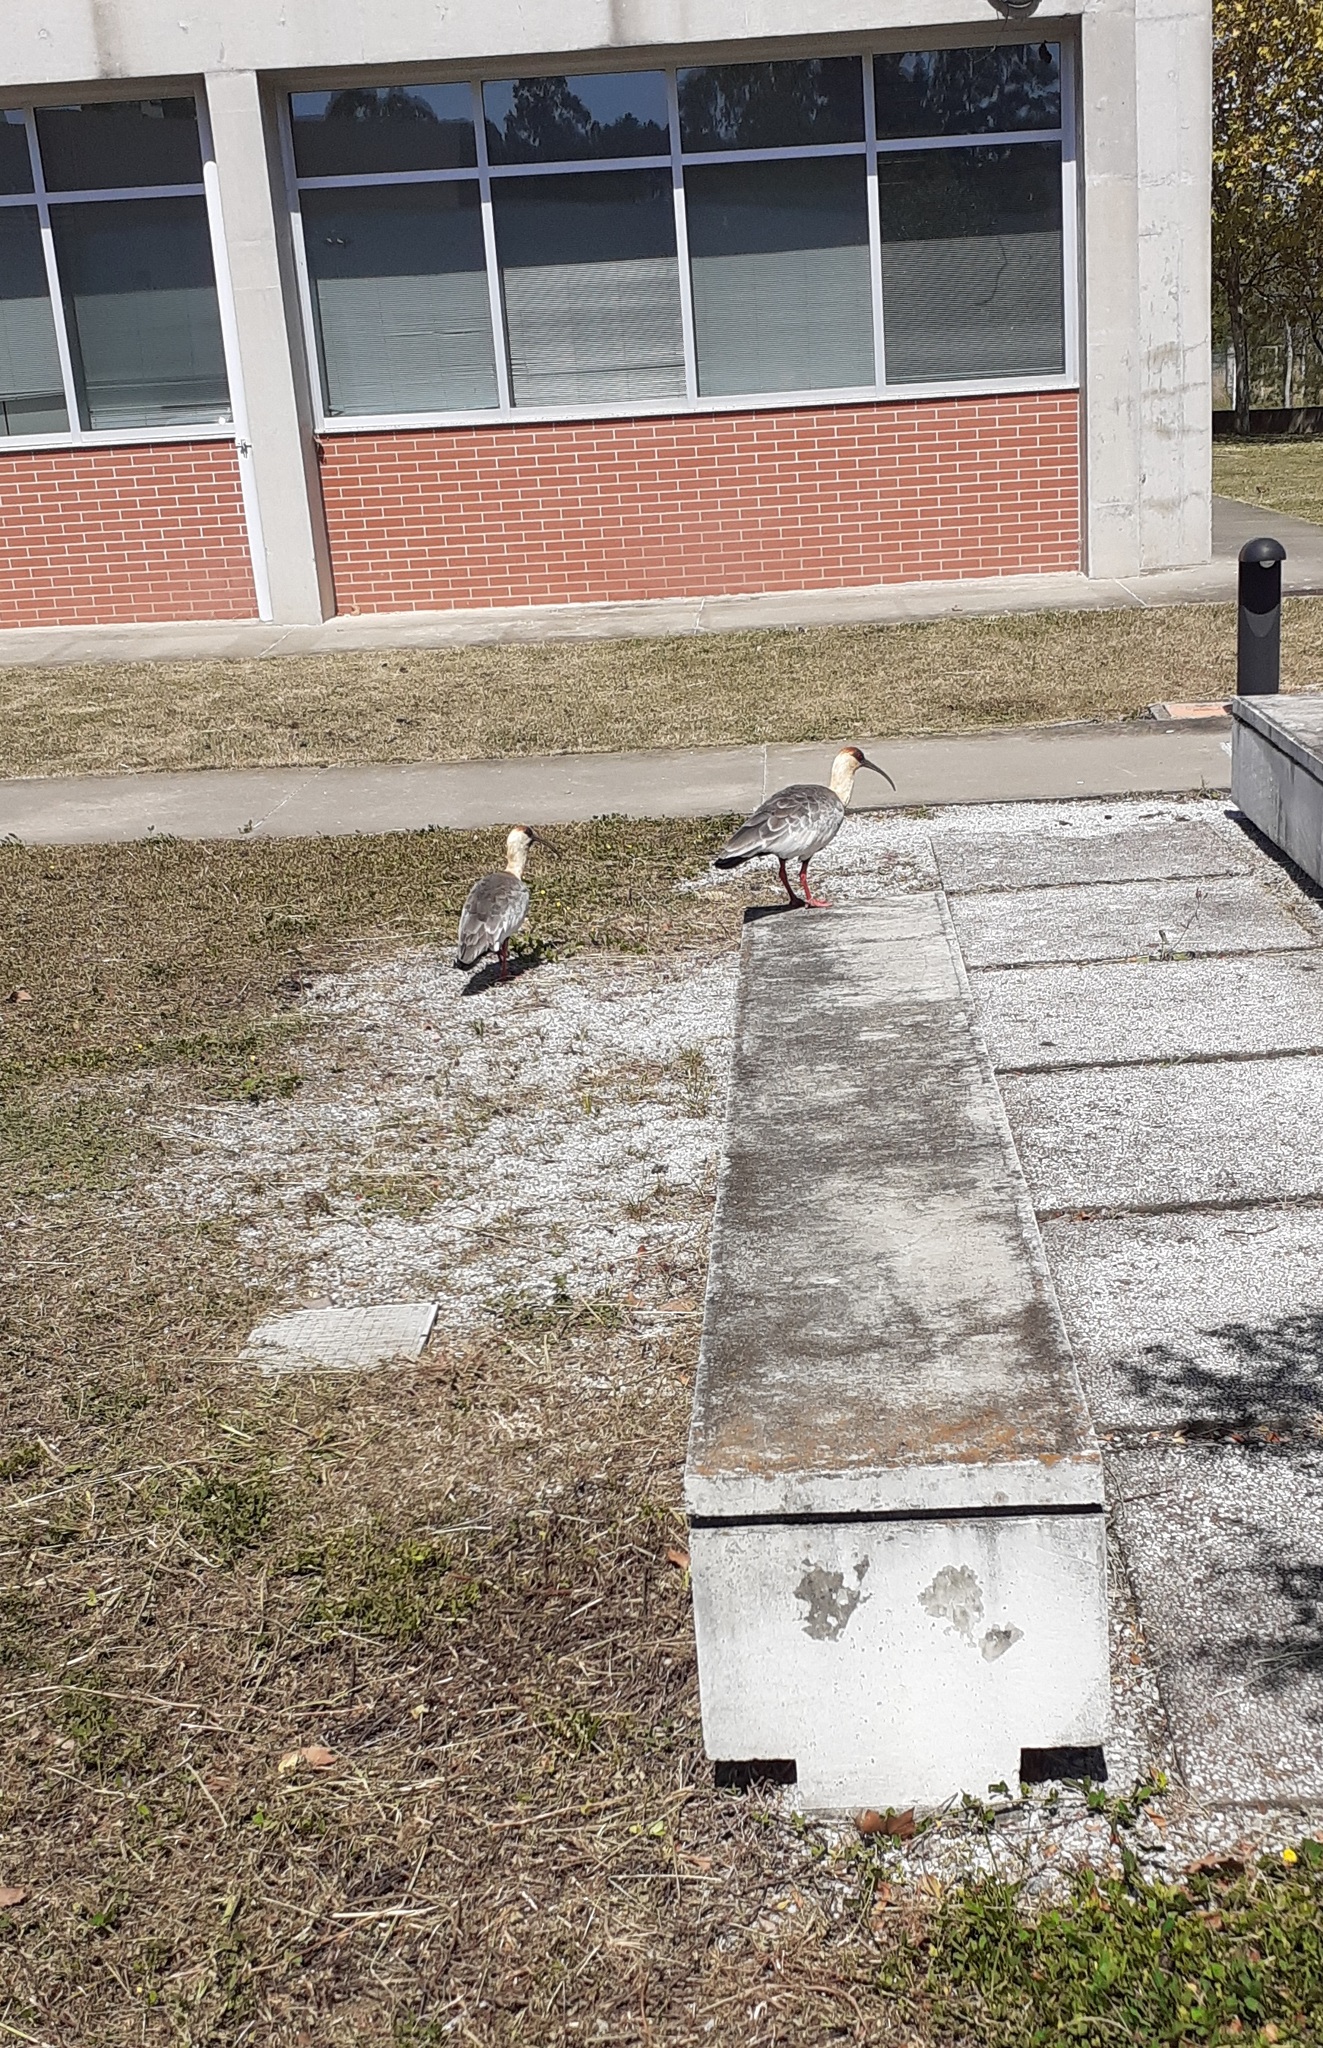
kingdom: Animalia
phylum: Chordata
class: Aves
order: Pelecaniformes
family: Threskiornithidae
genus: Theristicus
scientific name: Theristicus caudatus
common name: Buff-necked ibis
